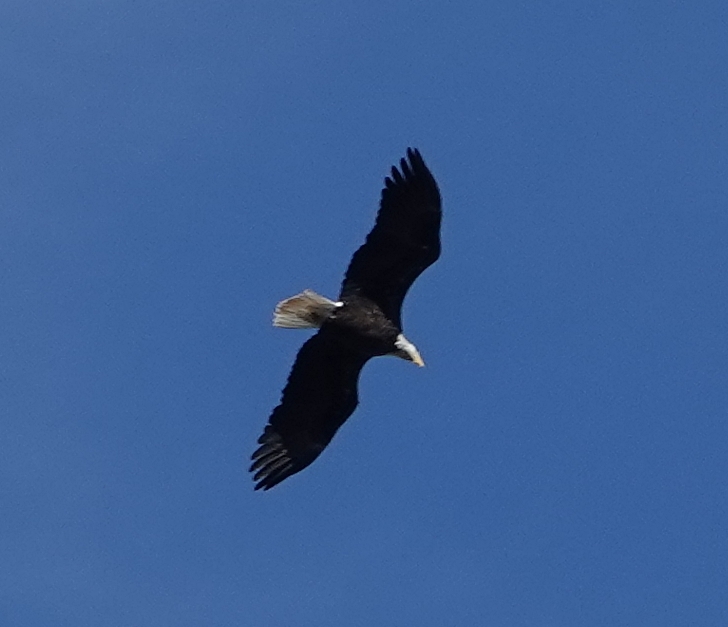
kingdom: Animalia
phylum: Chordata
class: Aves
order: Accipitriformes
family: Accipitridae
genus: Haliaeetus
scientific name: Haliaeetus leucocephalus
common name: Bald eagle
